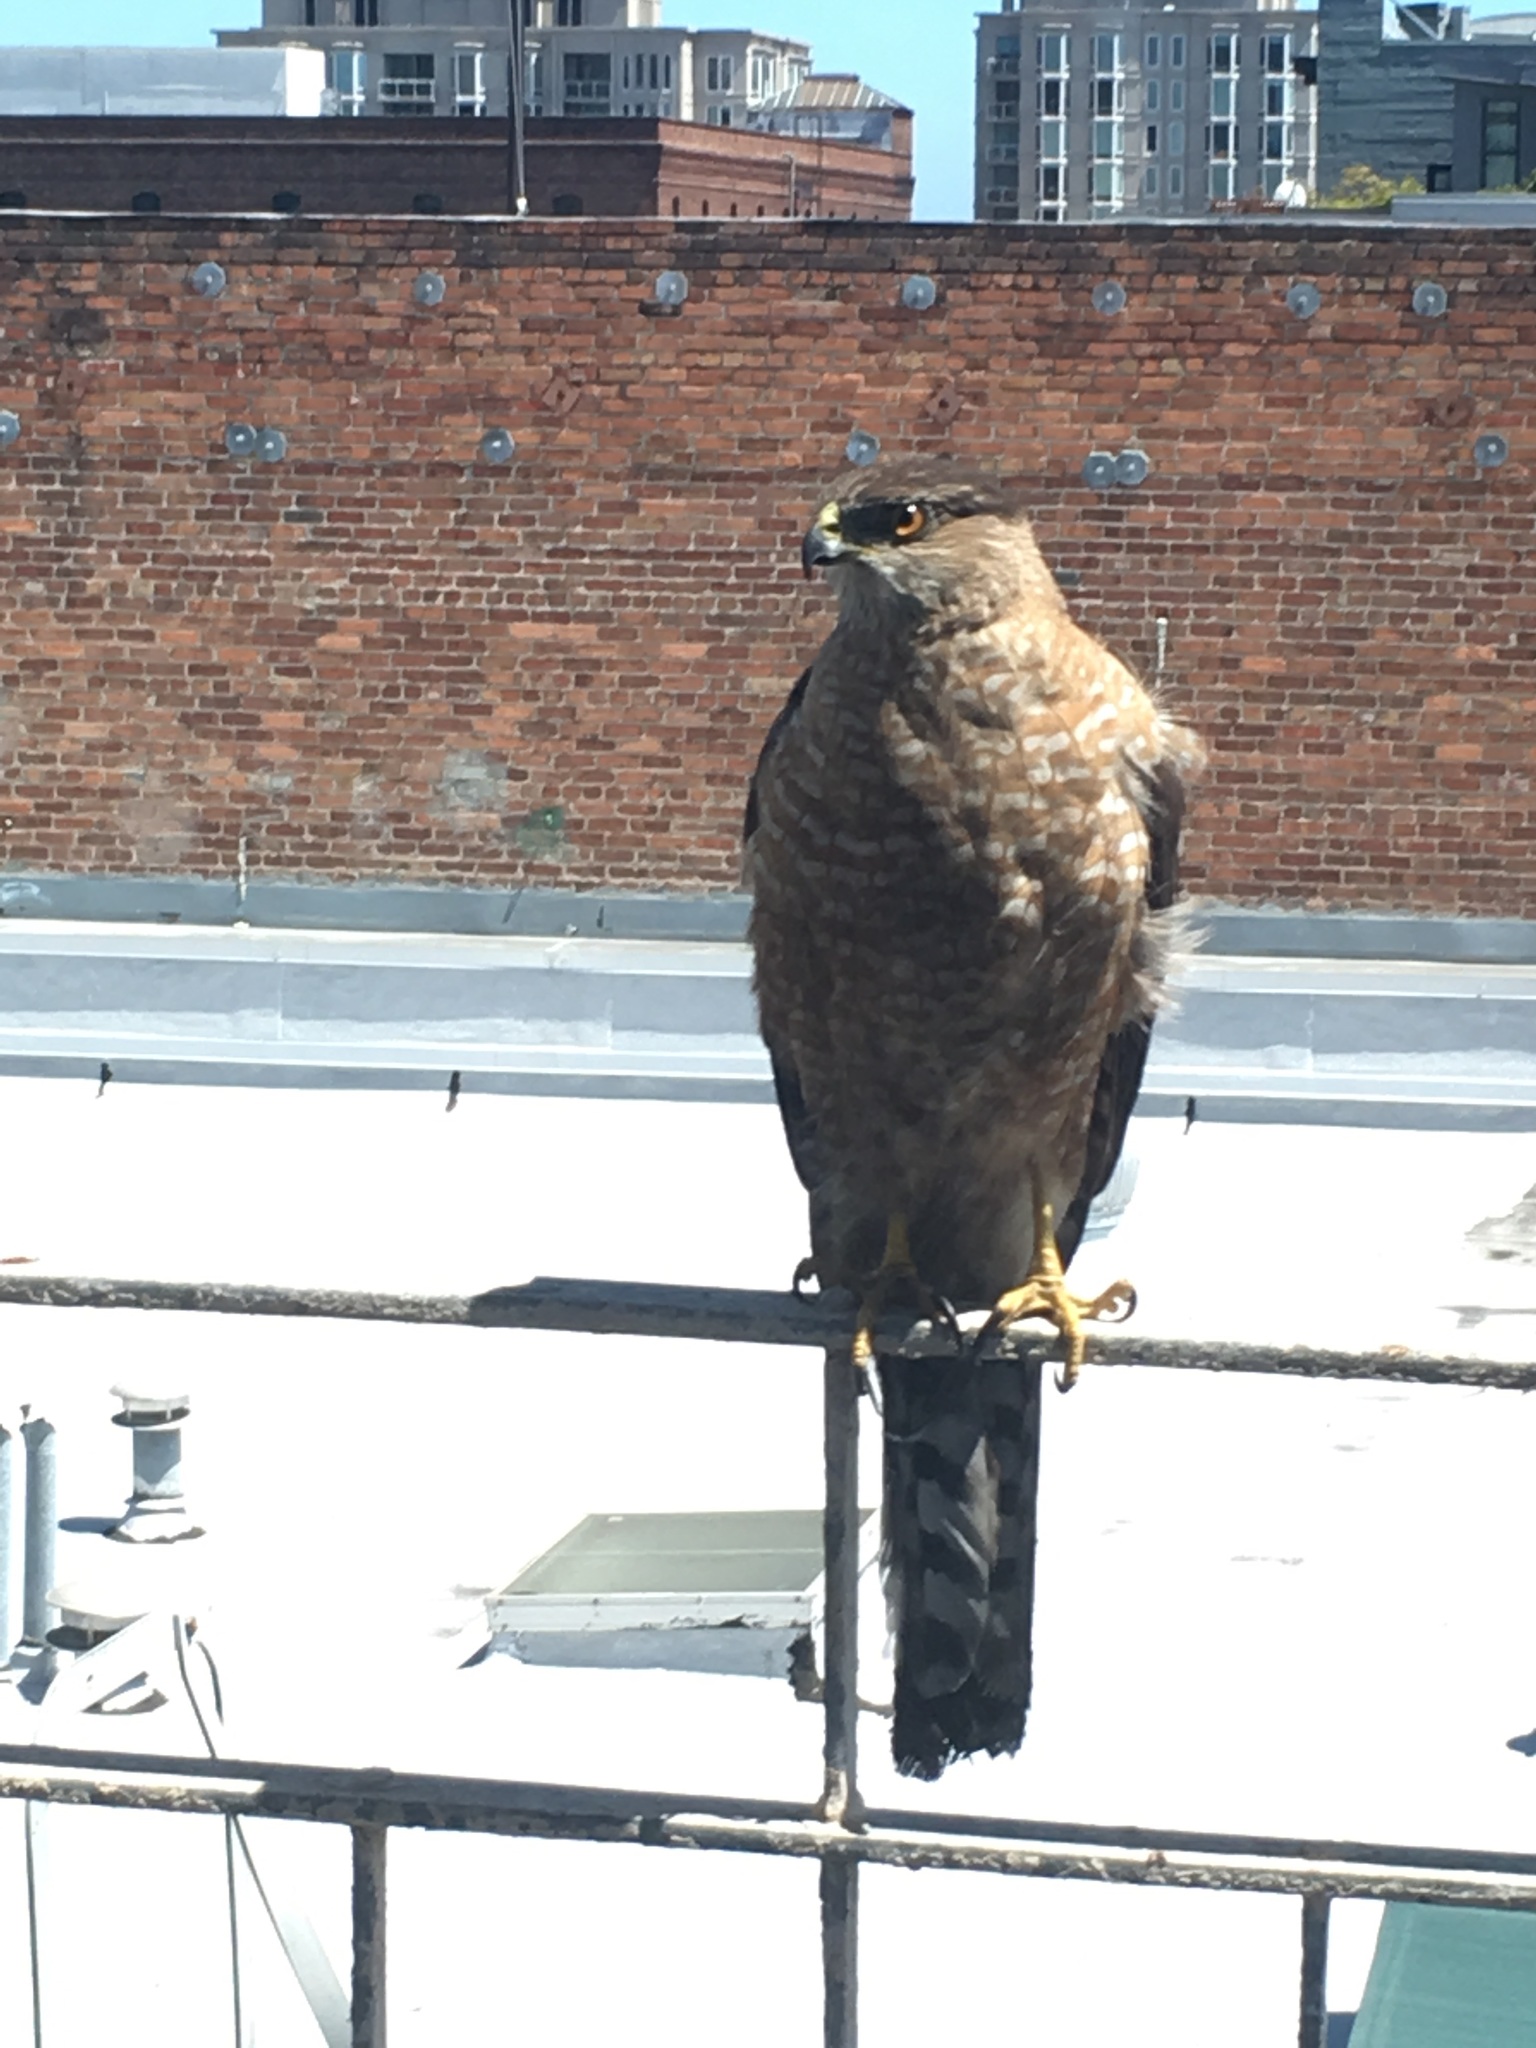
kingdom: Animalia
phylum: Chordata
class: Aves
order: Accipitriformes
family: Accipitridae
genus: Accipiter
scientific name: Accipiter cooperii
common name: Cooper's hawk
